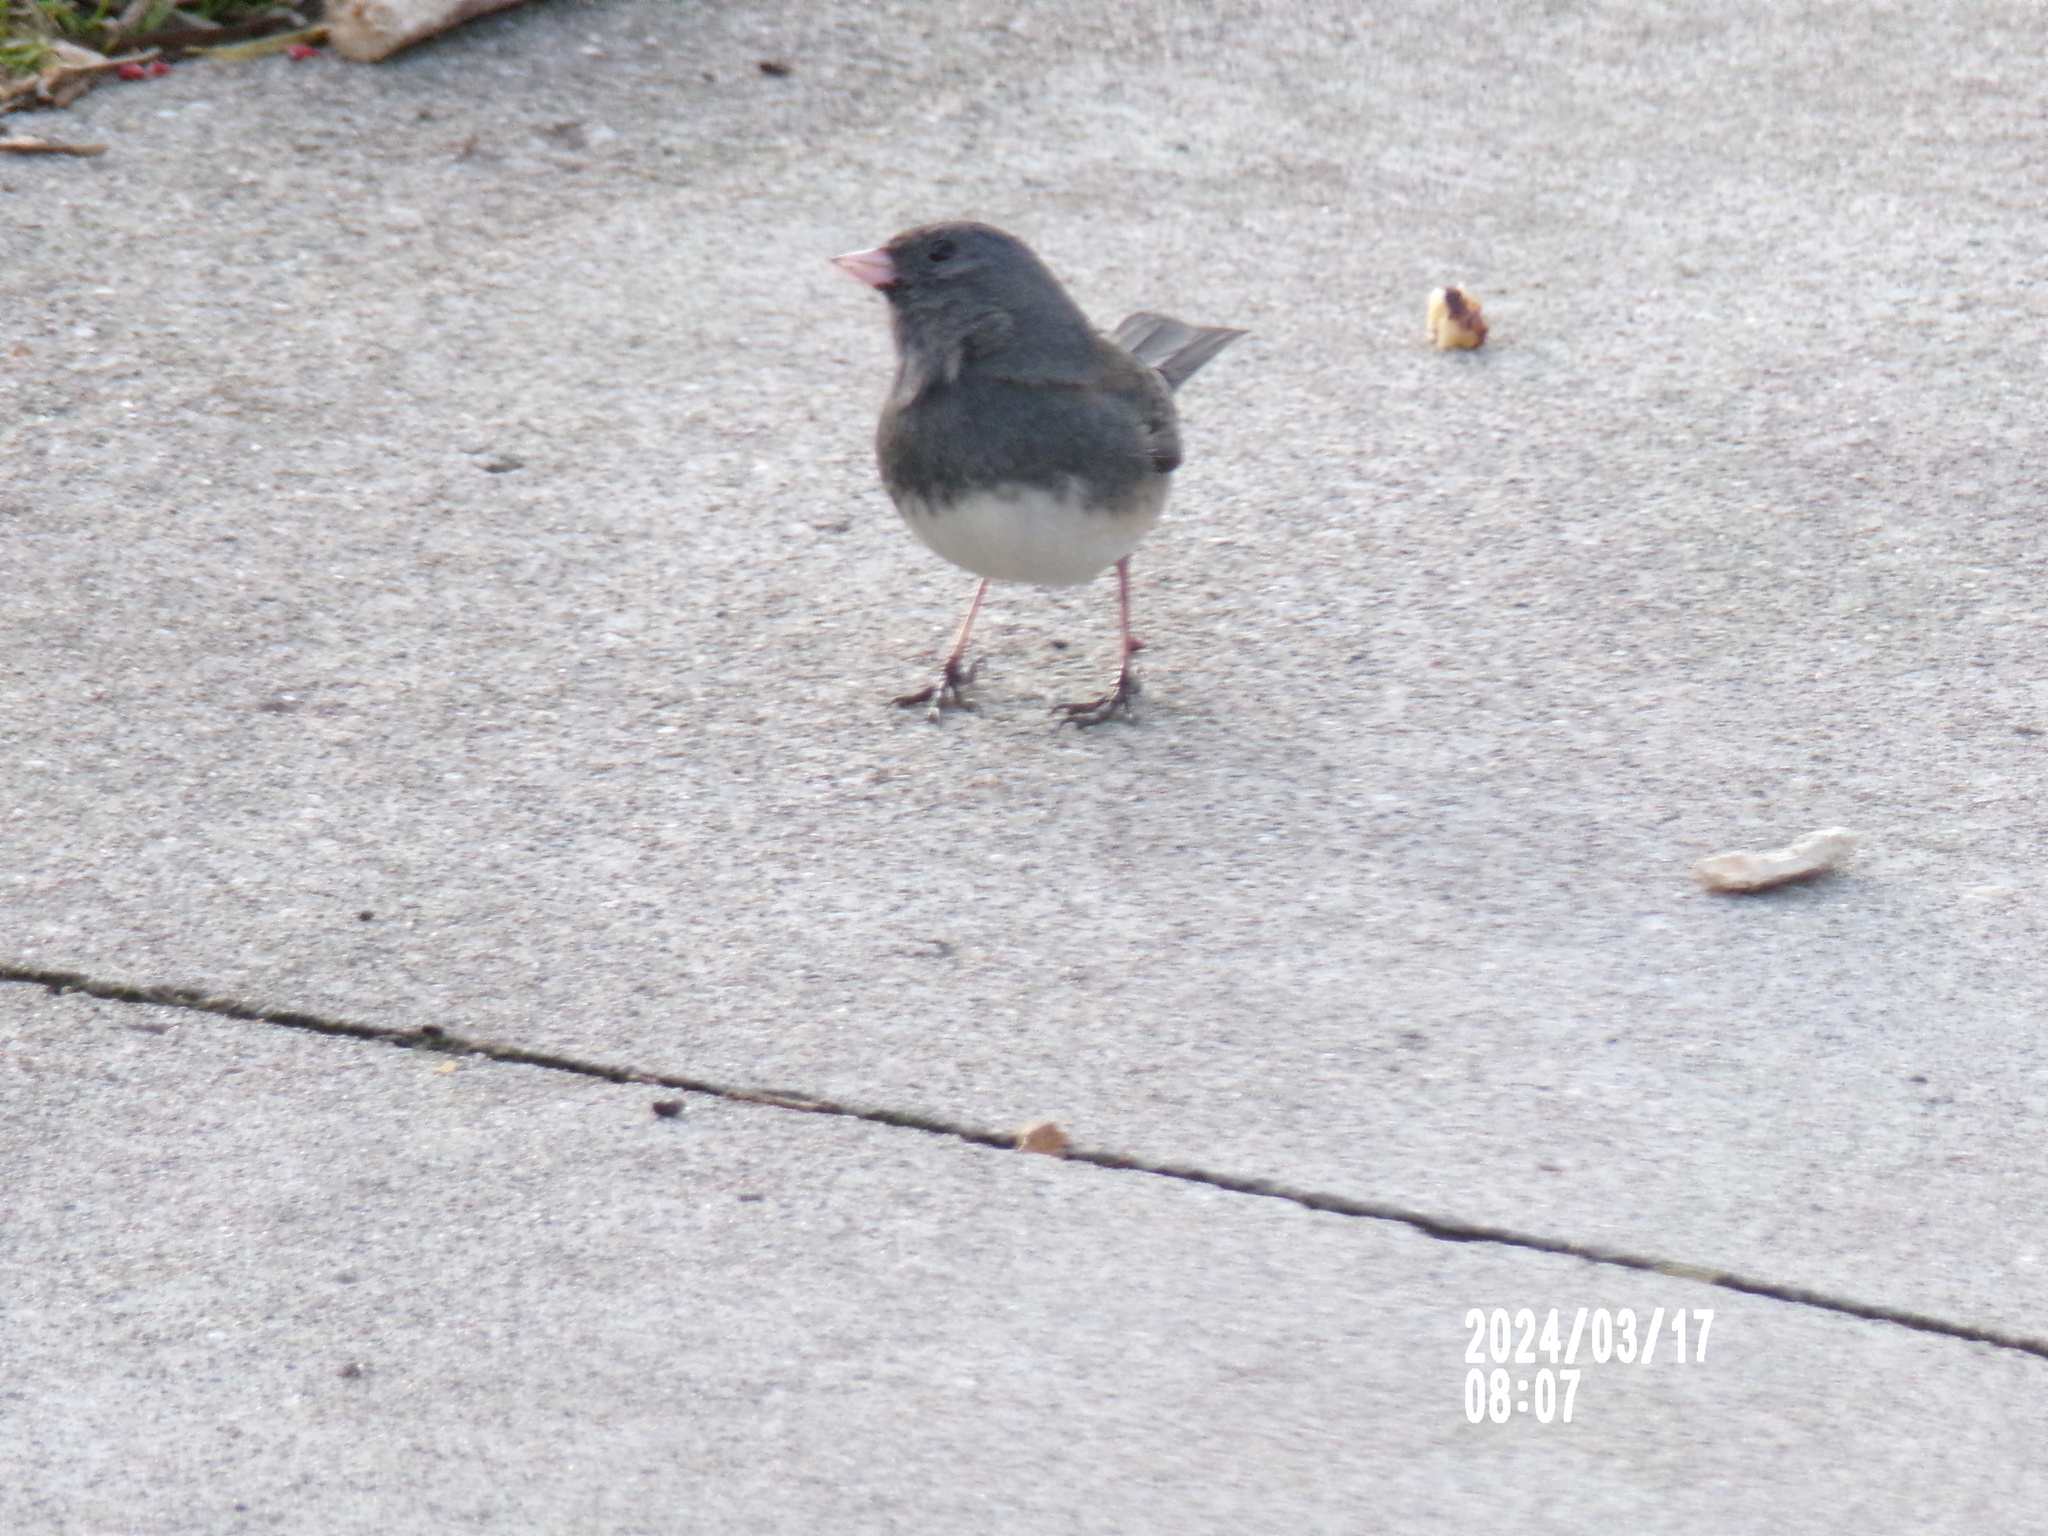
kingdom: Animalia
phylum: Chordata
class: Aves
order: Passeriformes
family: Passerellidae
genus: Junco
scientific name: Junco hyemalis
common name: Dark-eyed junco
